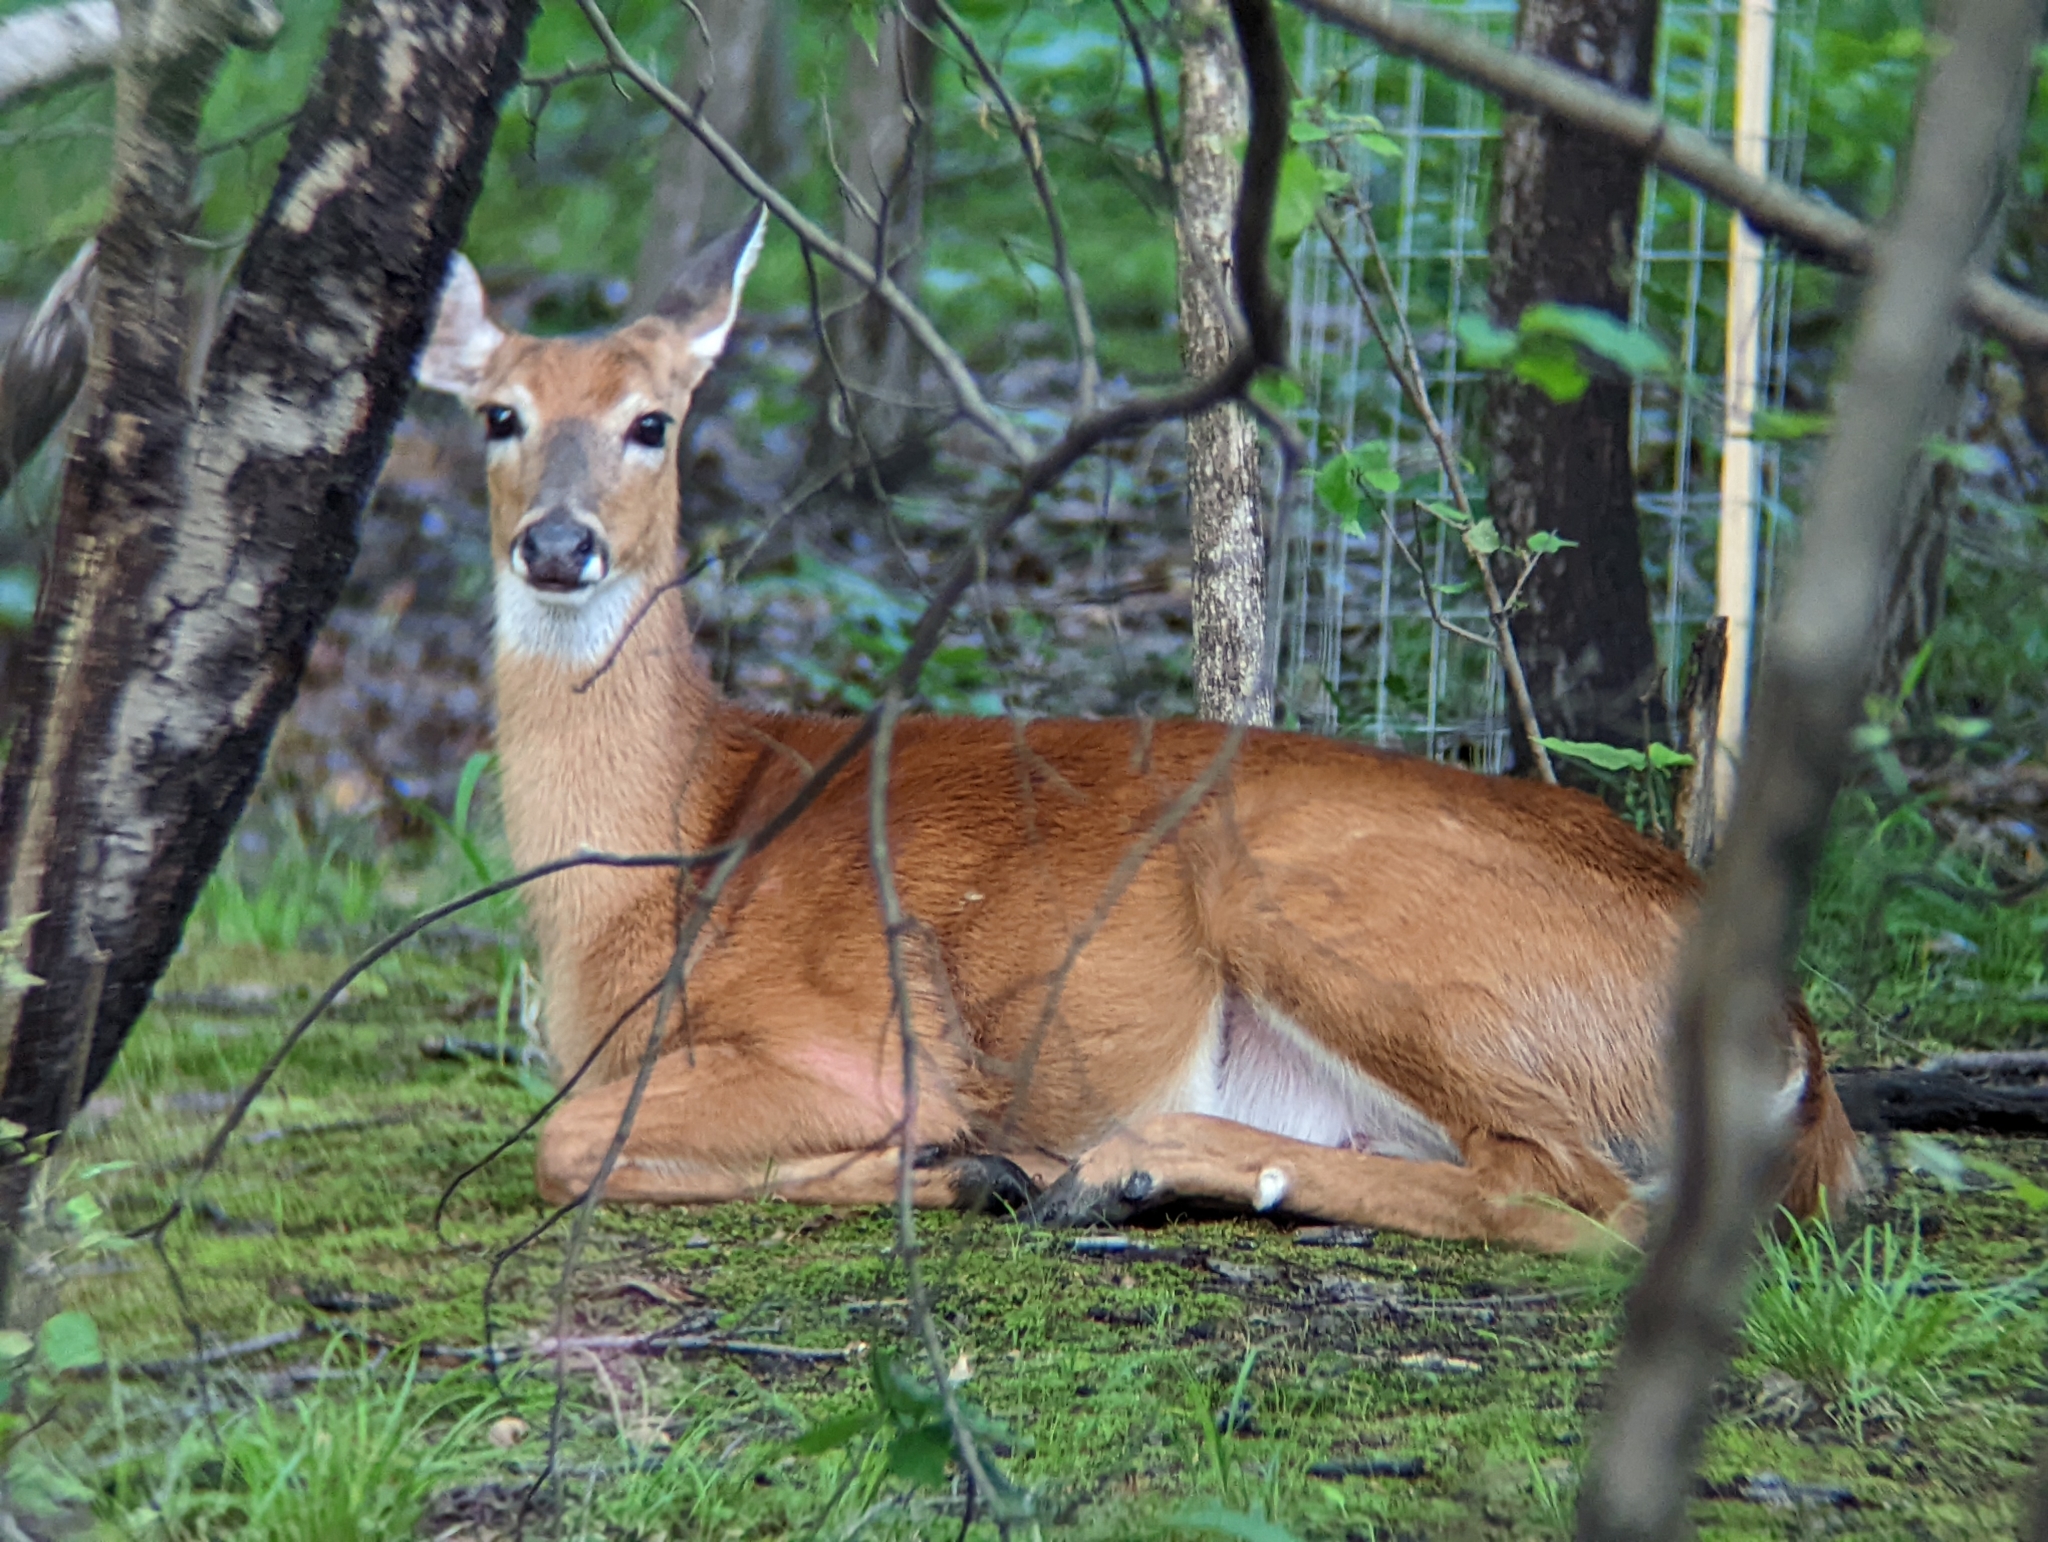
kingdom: Animalia
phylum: Chordata
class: Mammalia
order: Artiodactyla
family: Cervidae
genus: Odocoileus
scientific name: Odocoileus virginianus
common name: White-tailed deer
